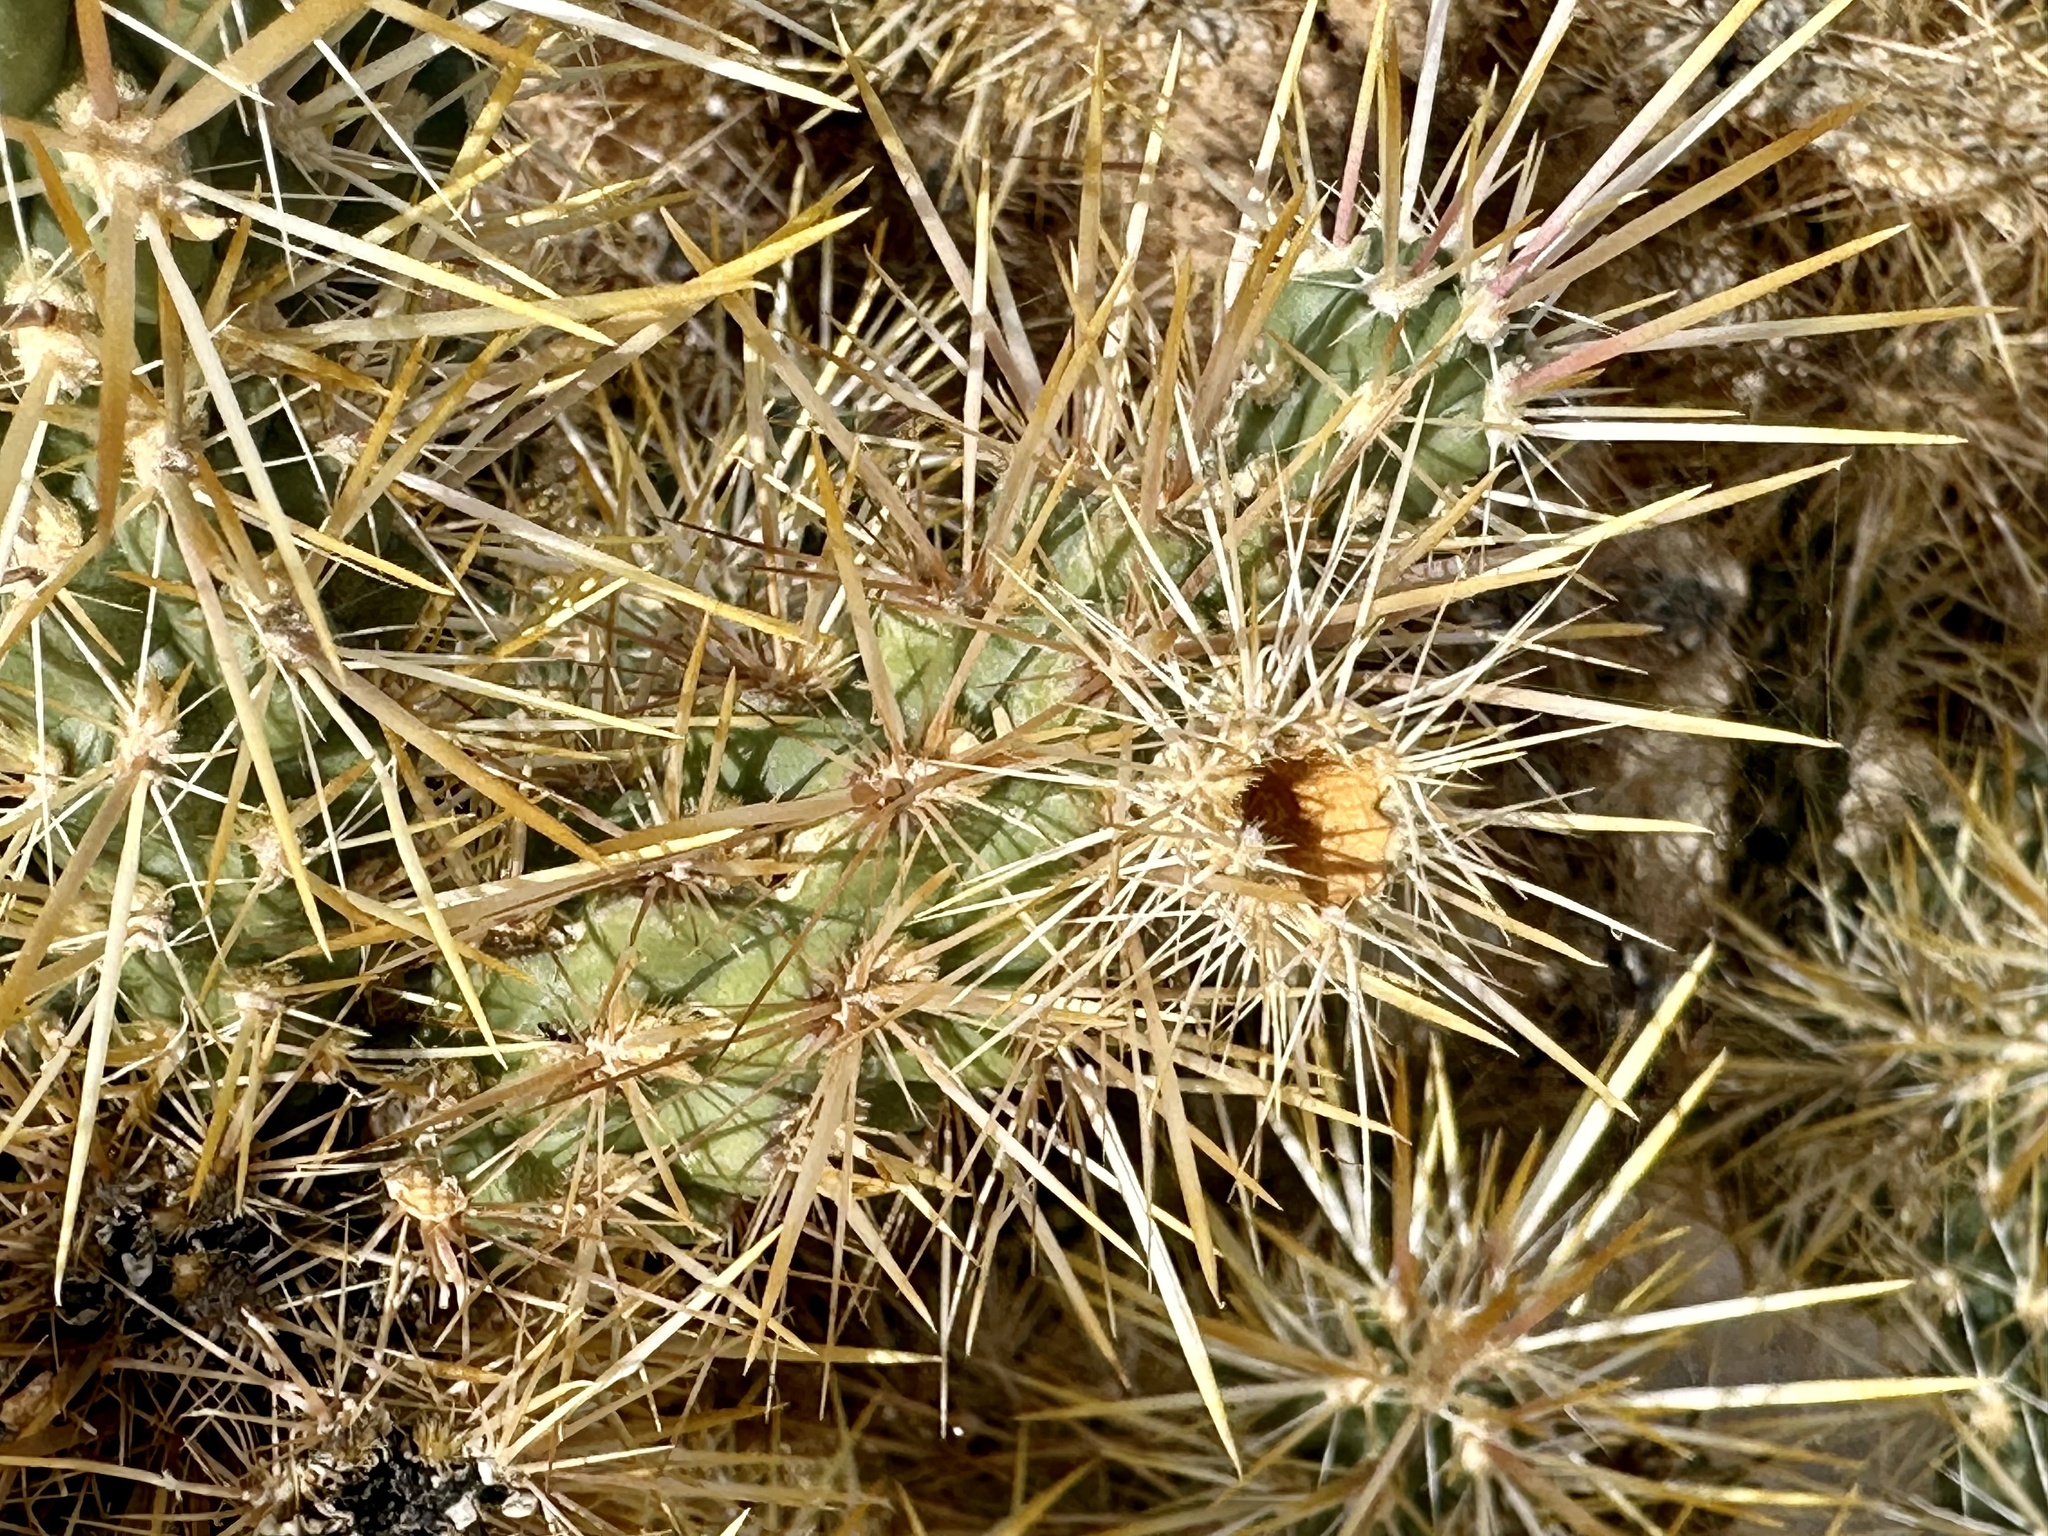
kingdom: Plantae
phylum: Tracheophyta
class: Magnoliopsida
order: Caryophyllales
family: Cactaceae
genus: Cylindropuntia
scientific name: Cylindropuntia echinocarpa
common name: Ground cholla
